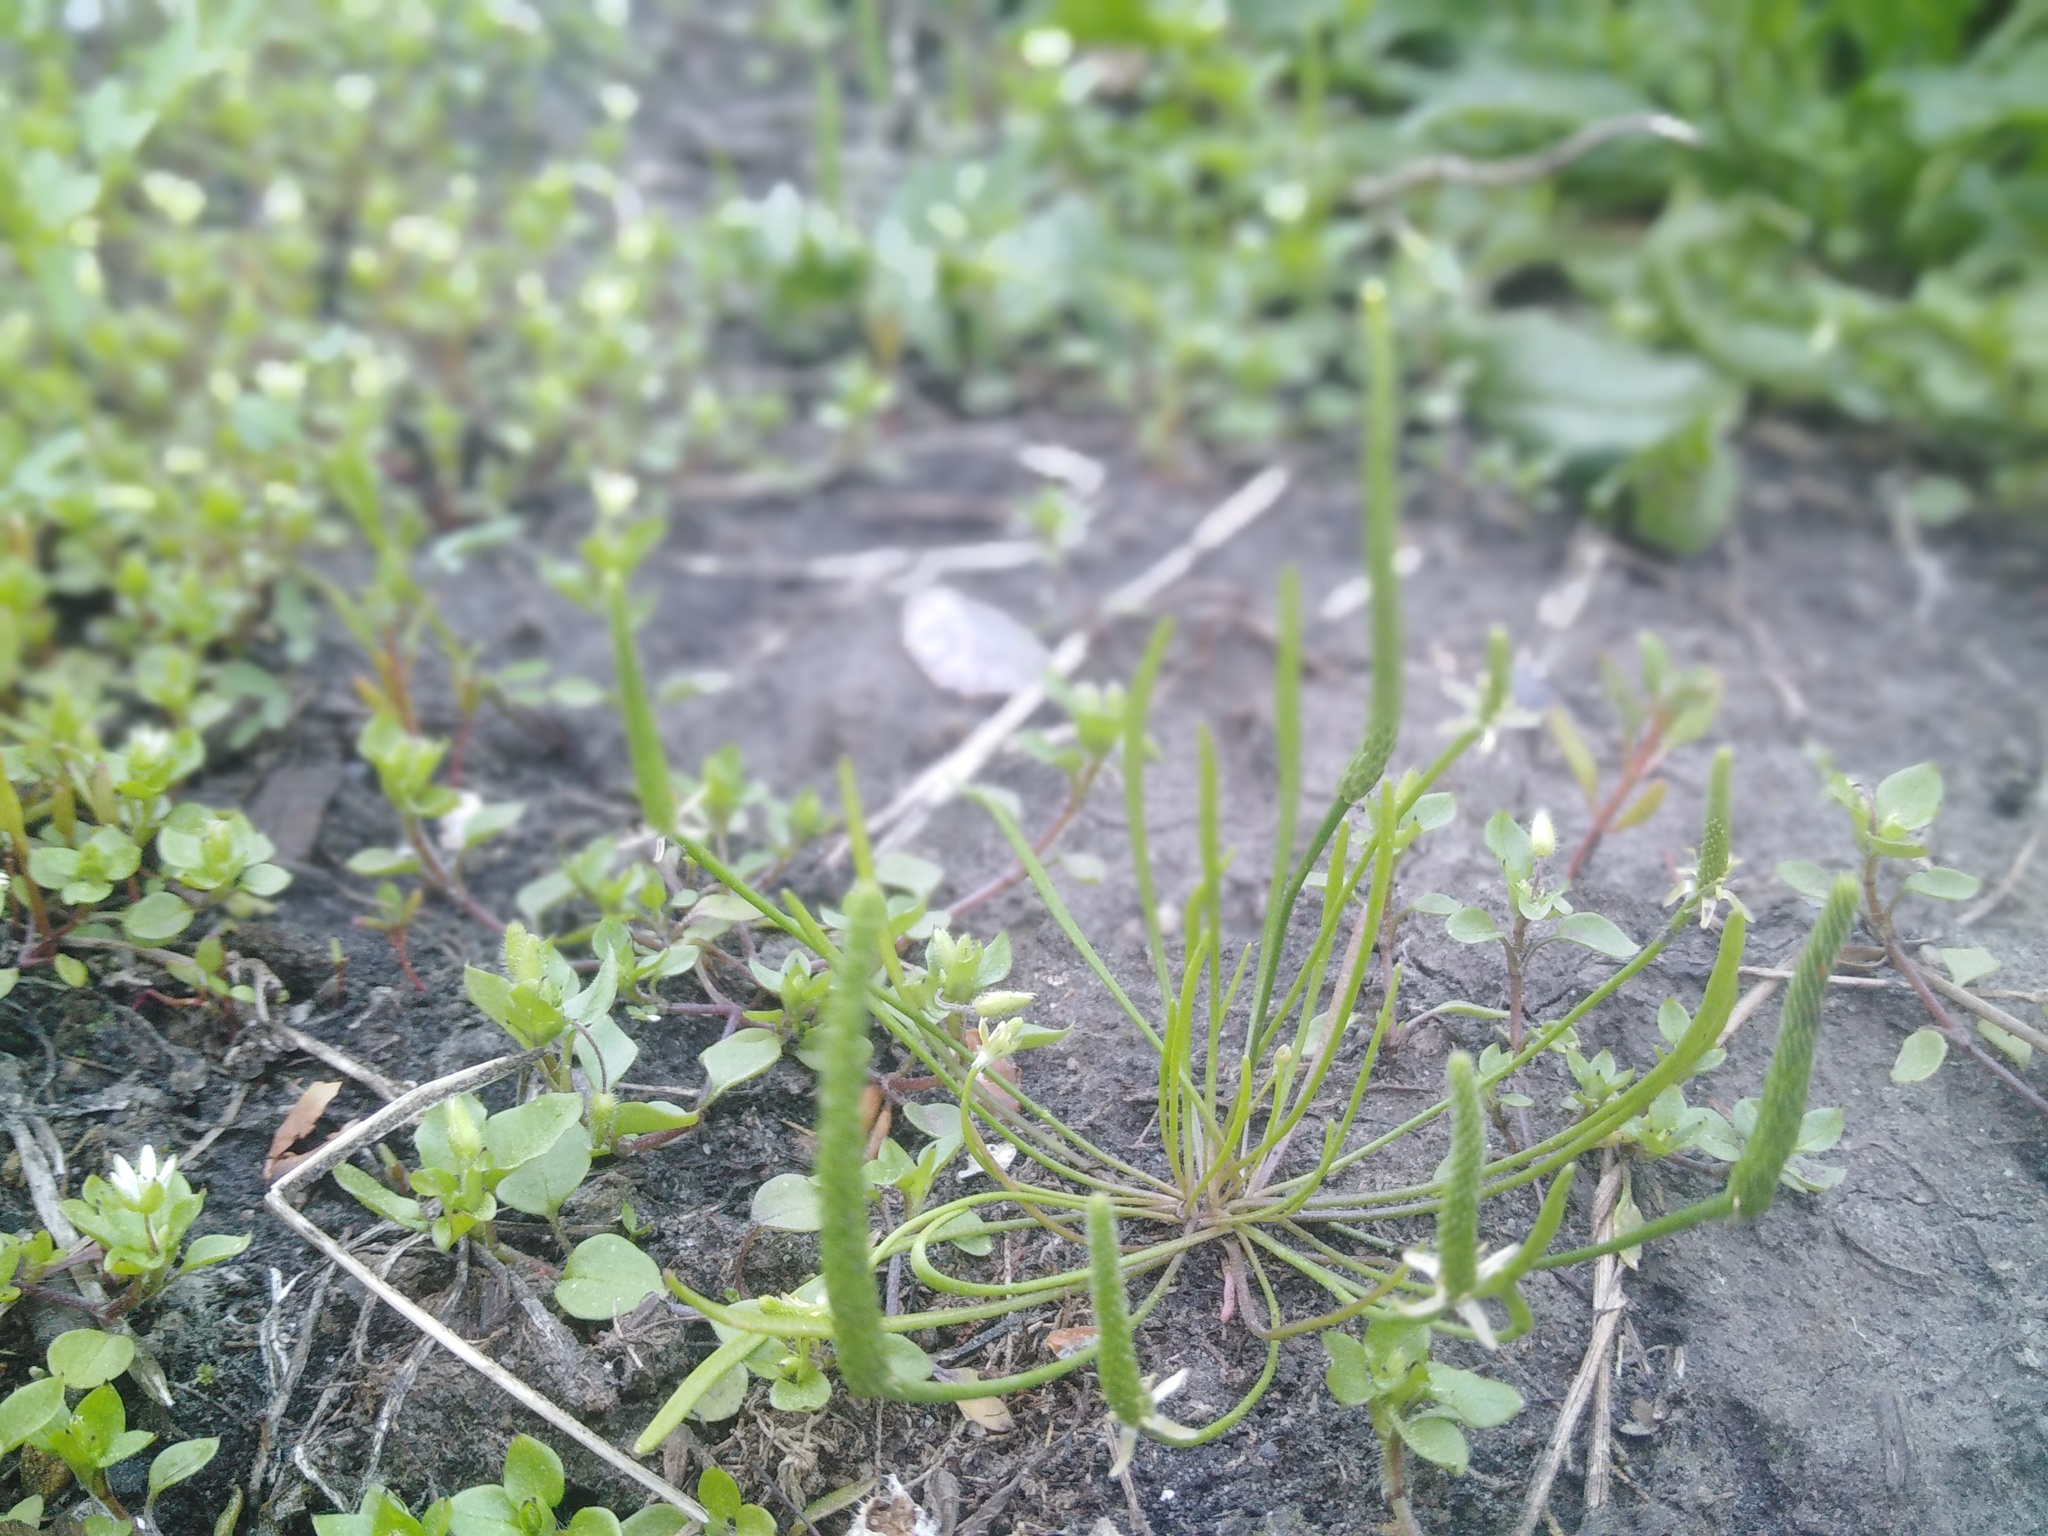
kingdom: Plantae
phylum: Tracheophyta
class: Magnoliopsida
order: Ranunculales
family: Ranunculaceae
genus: Myosurus
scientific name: Myosurus minimus
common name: Mousetail
